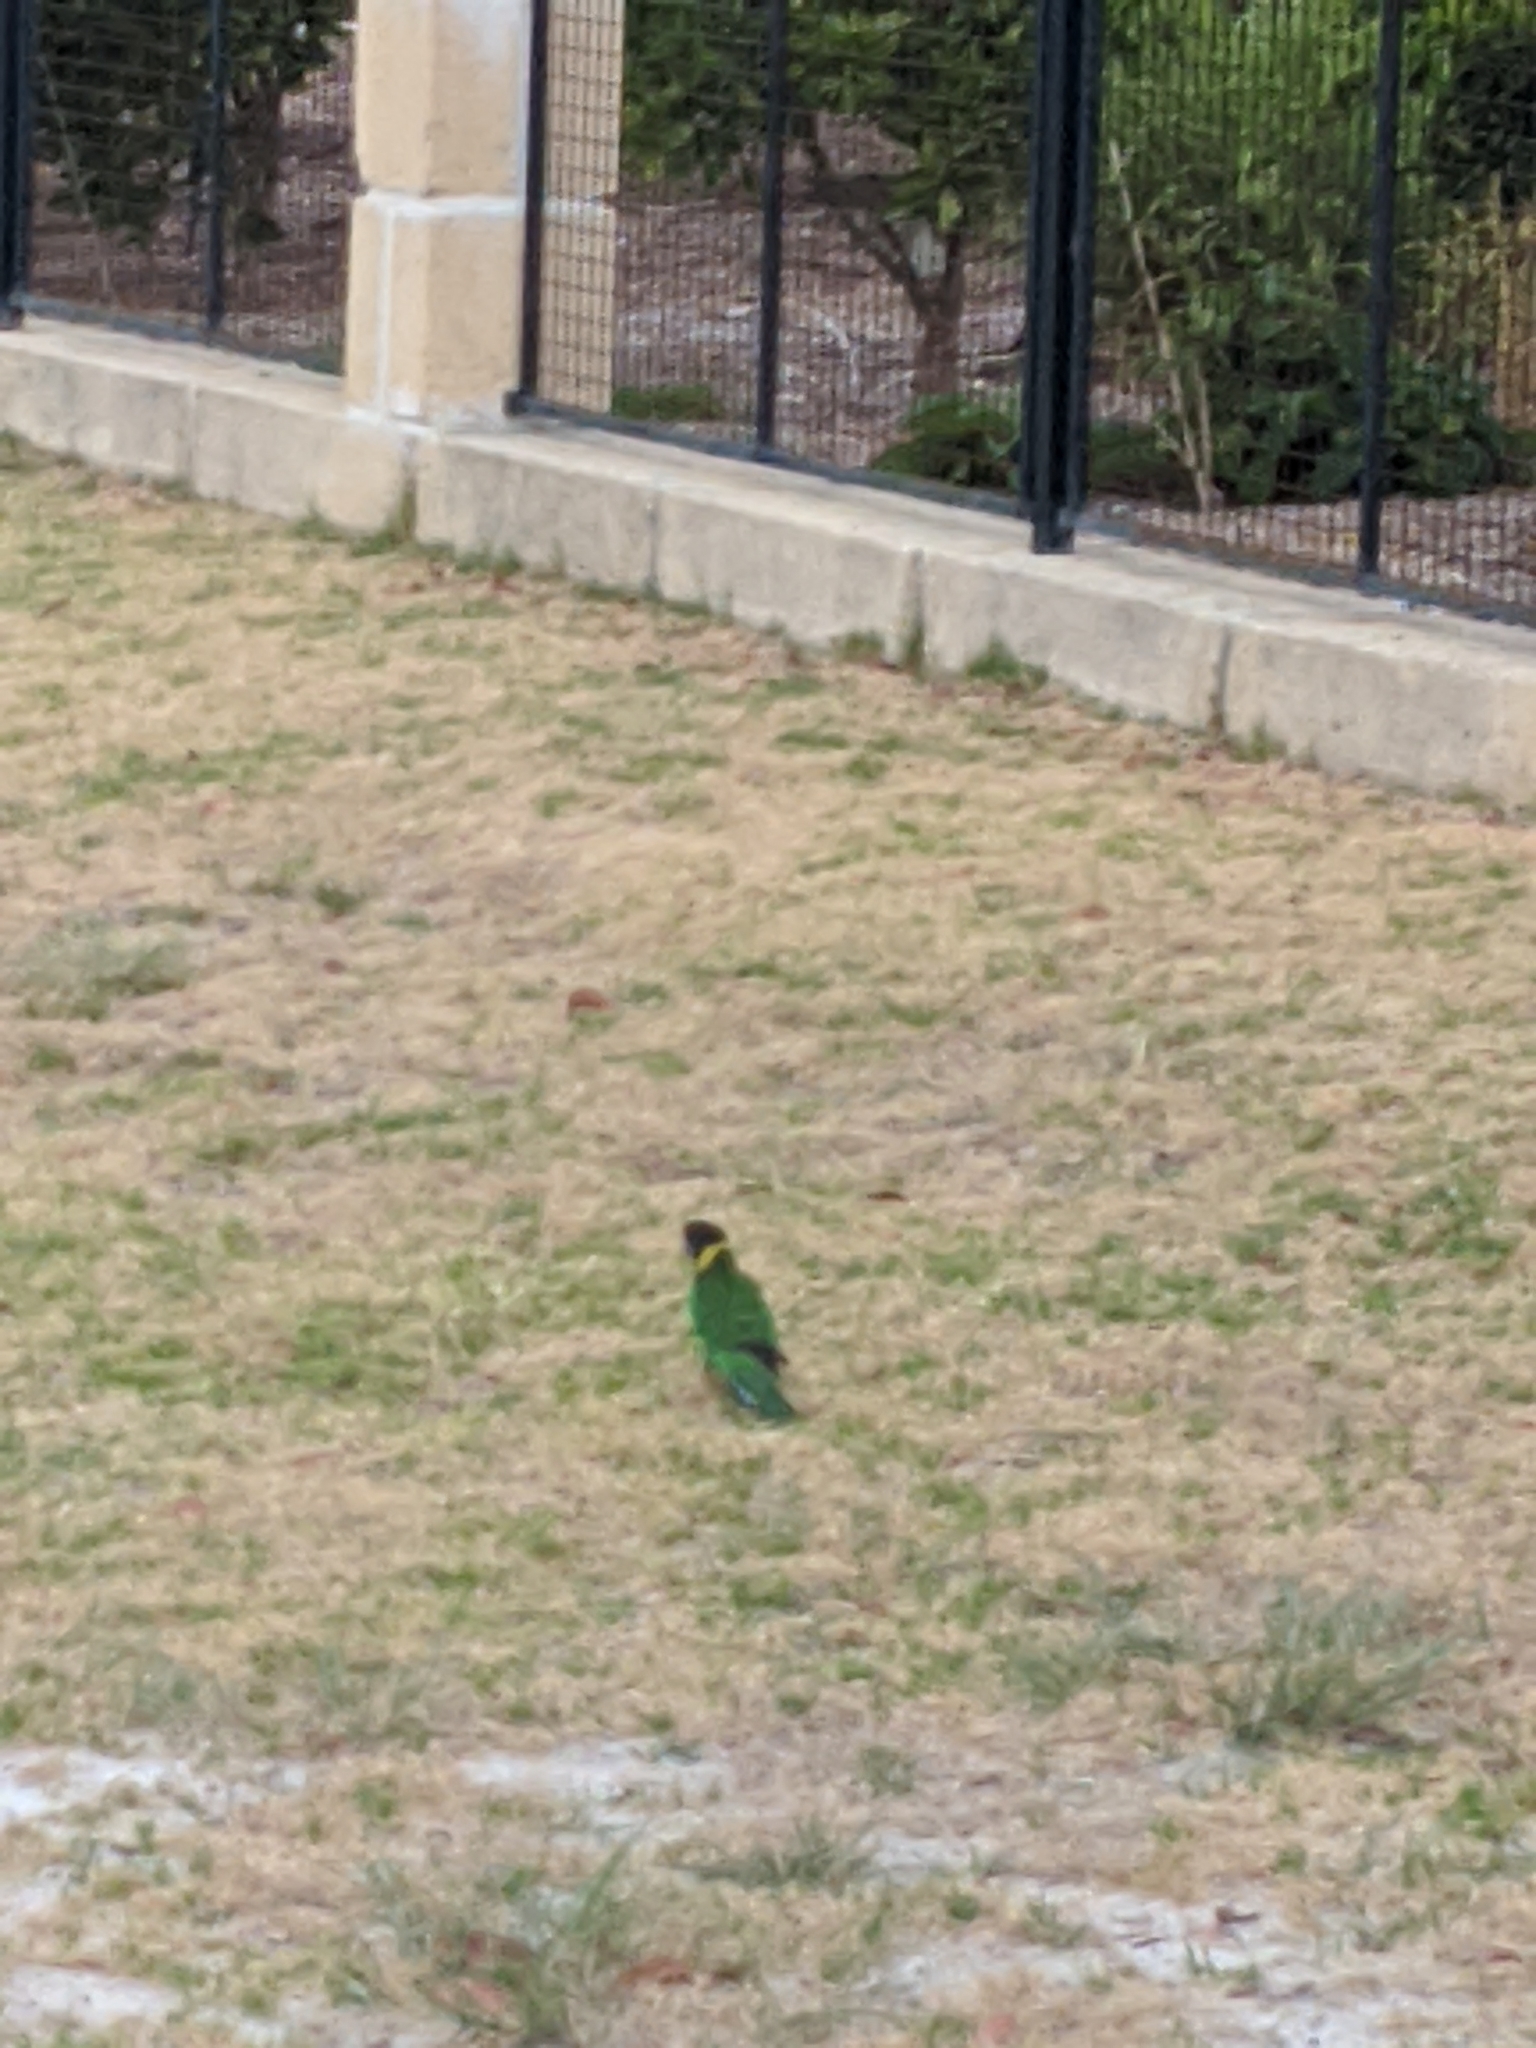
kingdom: Animalia
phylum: Chordata
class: Aves
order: Psittaciformes
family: Psittacidae
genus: Barnardius
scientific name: Barnardius zonarius
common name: Australian ringneck
